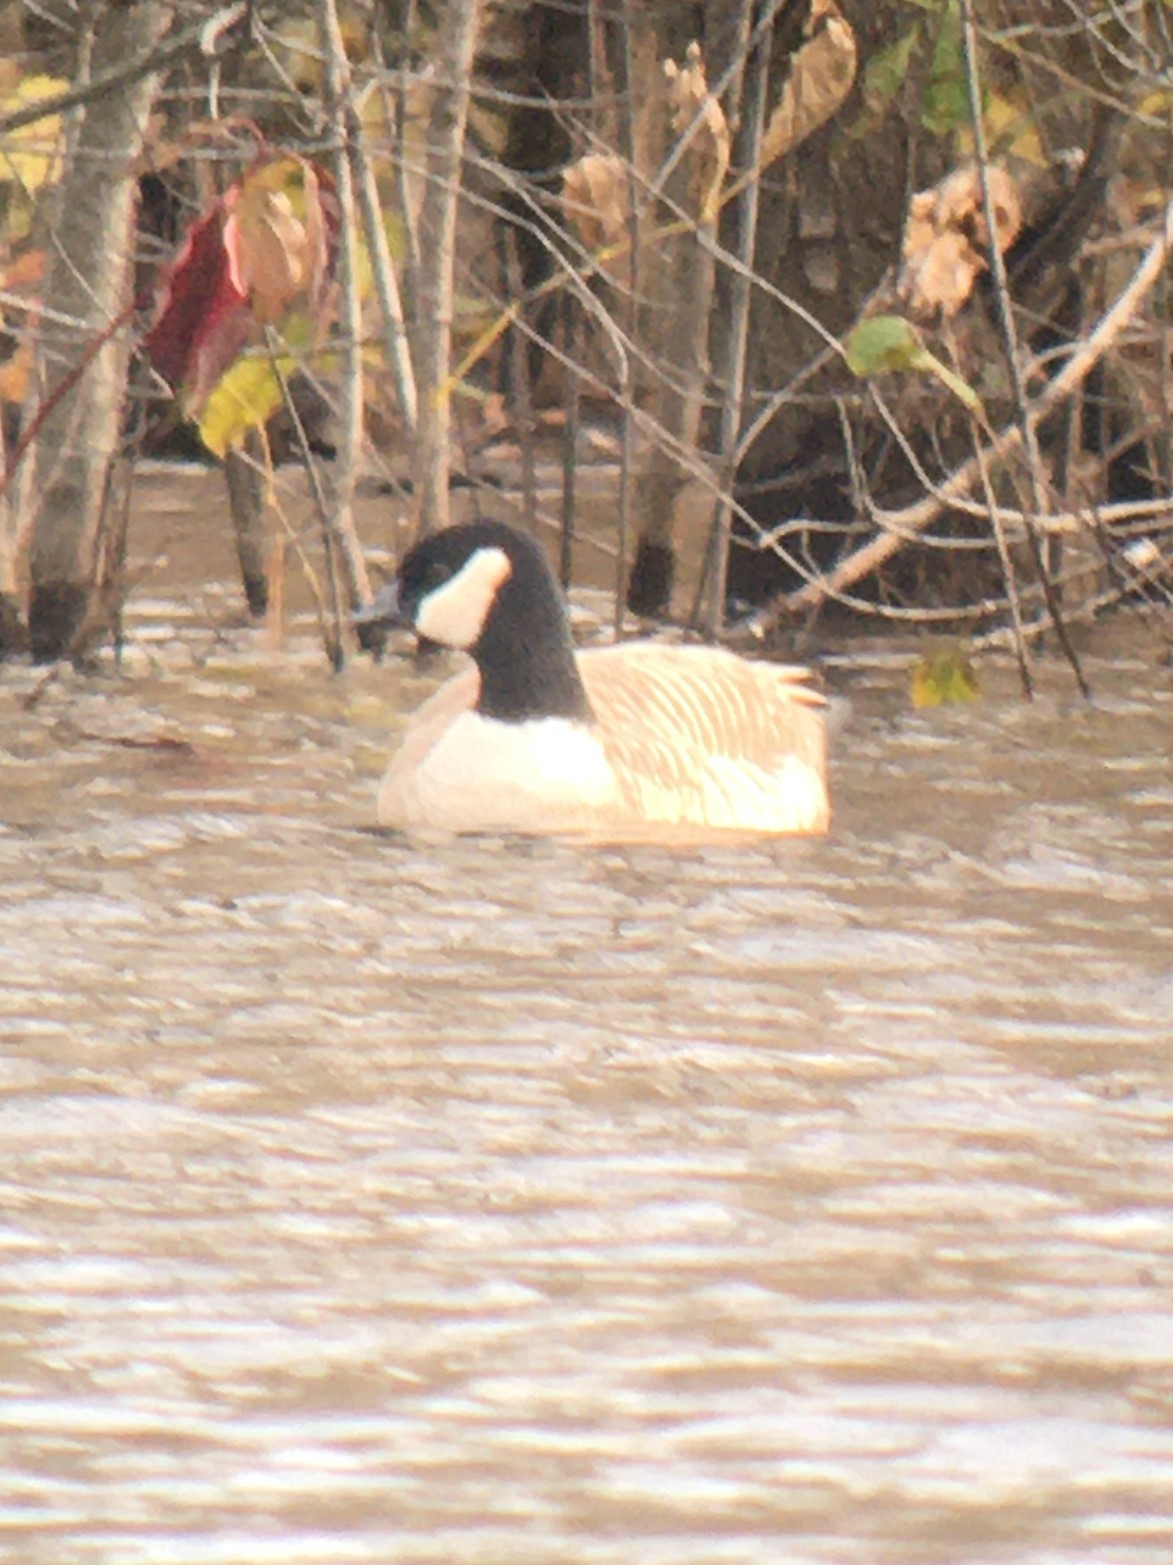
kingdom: Animalia
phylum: Chordata
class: Aves
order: Anseriformes
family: Anatidae
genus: Branta
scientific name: Branta hutchinsii
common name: Cackling goose
